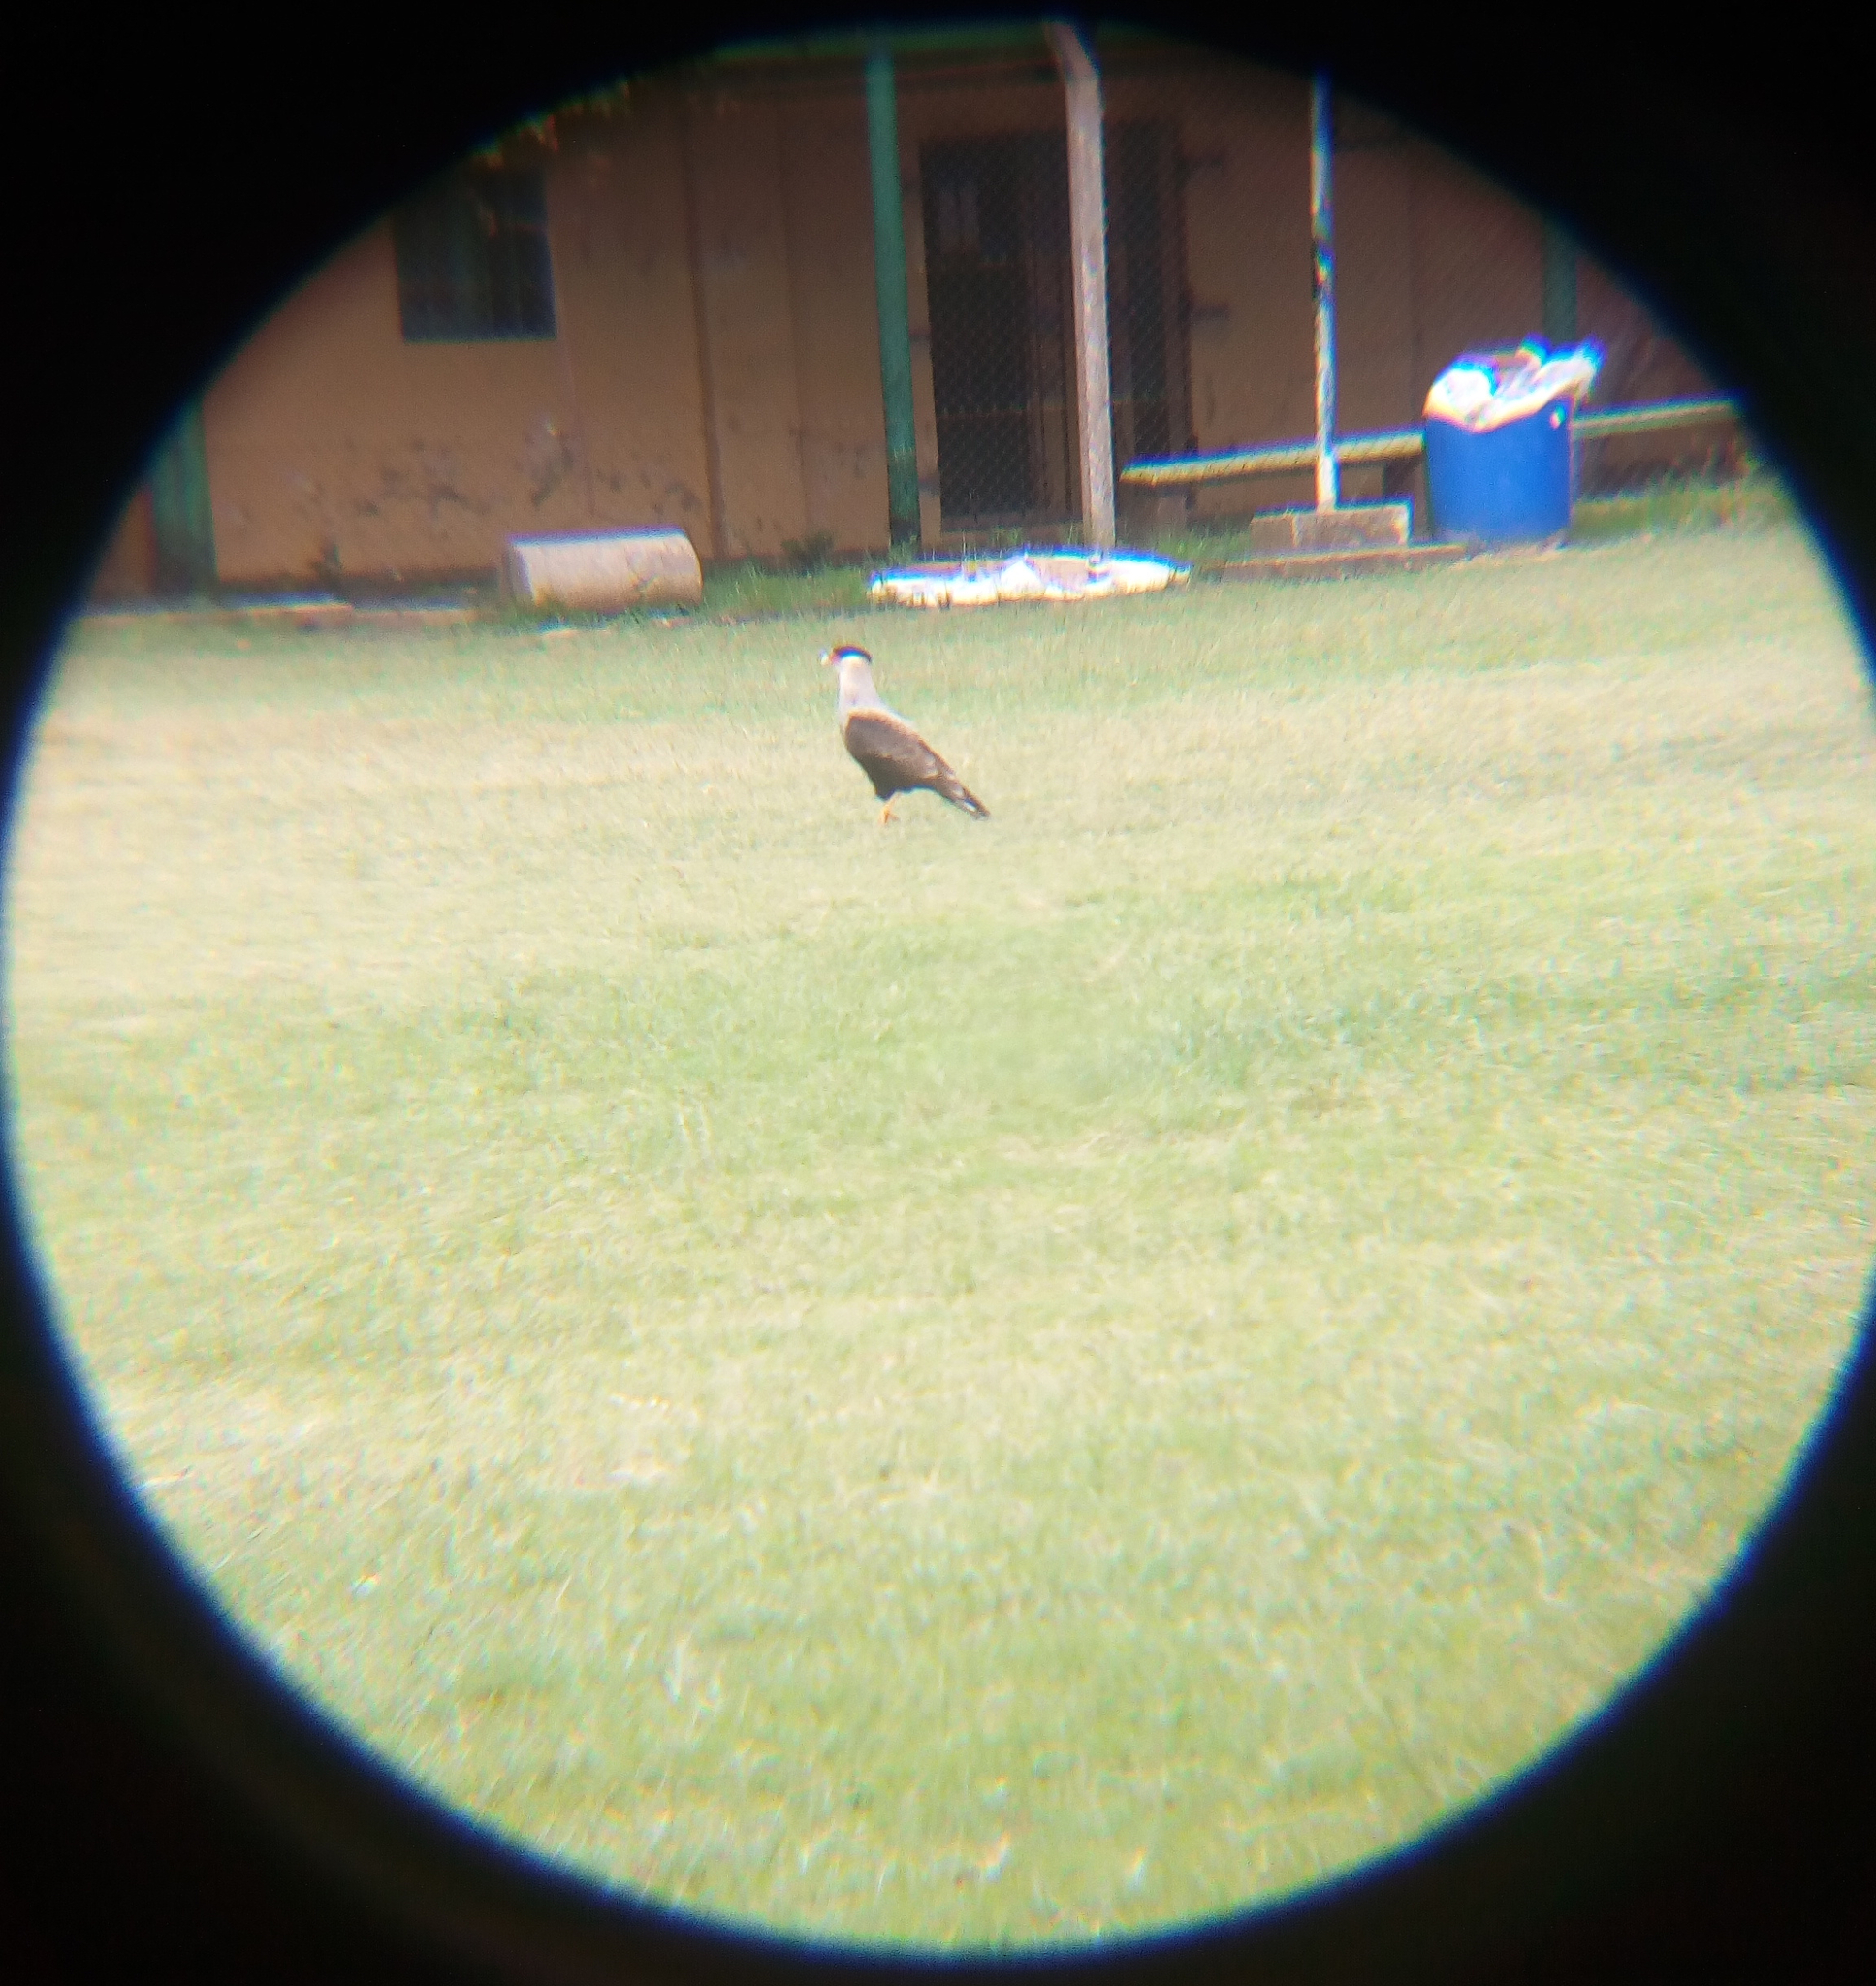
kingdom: Animalia
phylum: Chordata
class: Aves
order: Falconiformes
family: Falconidae
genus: Caracara
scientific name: Caracara plancus
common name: Southern caracara
